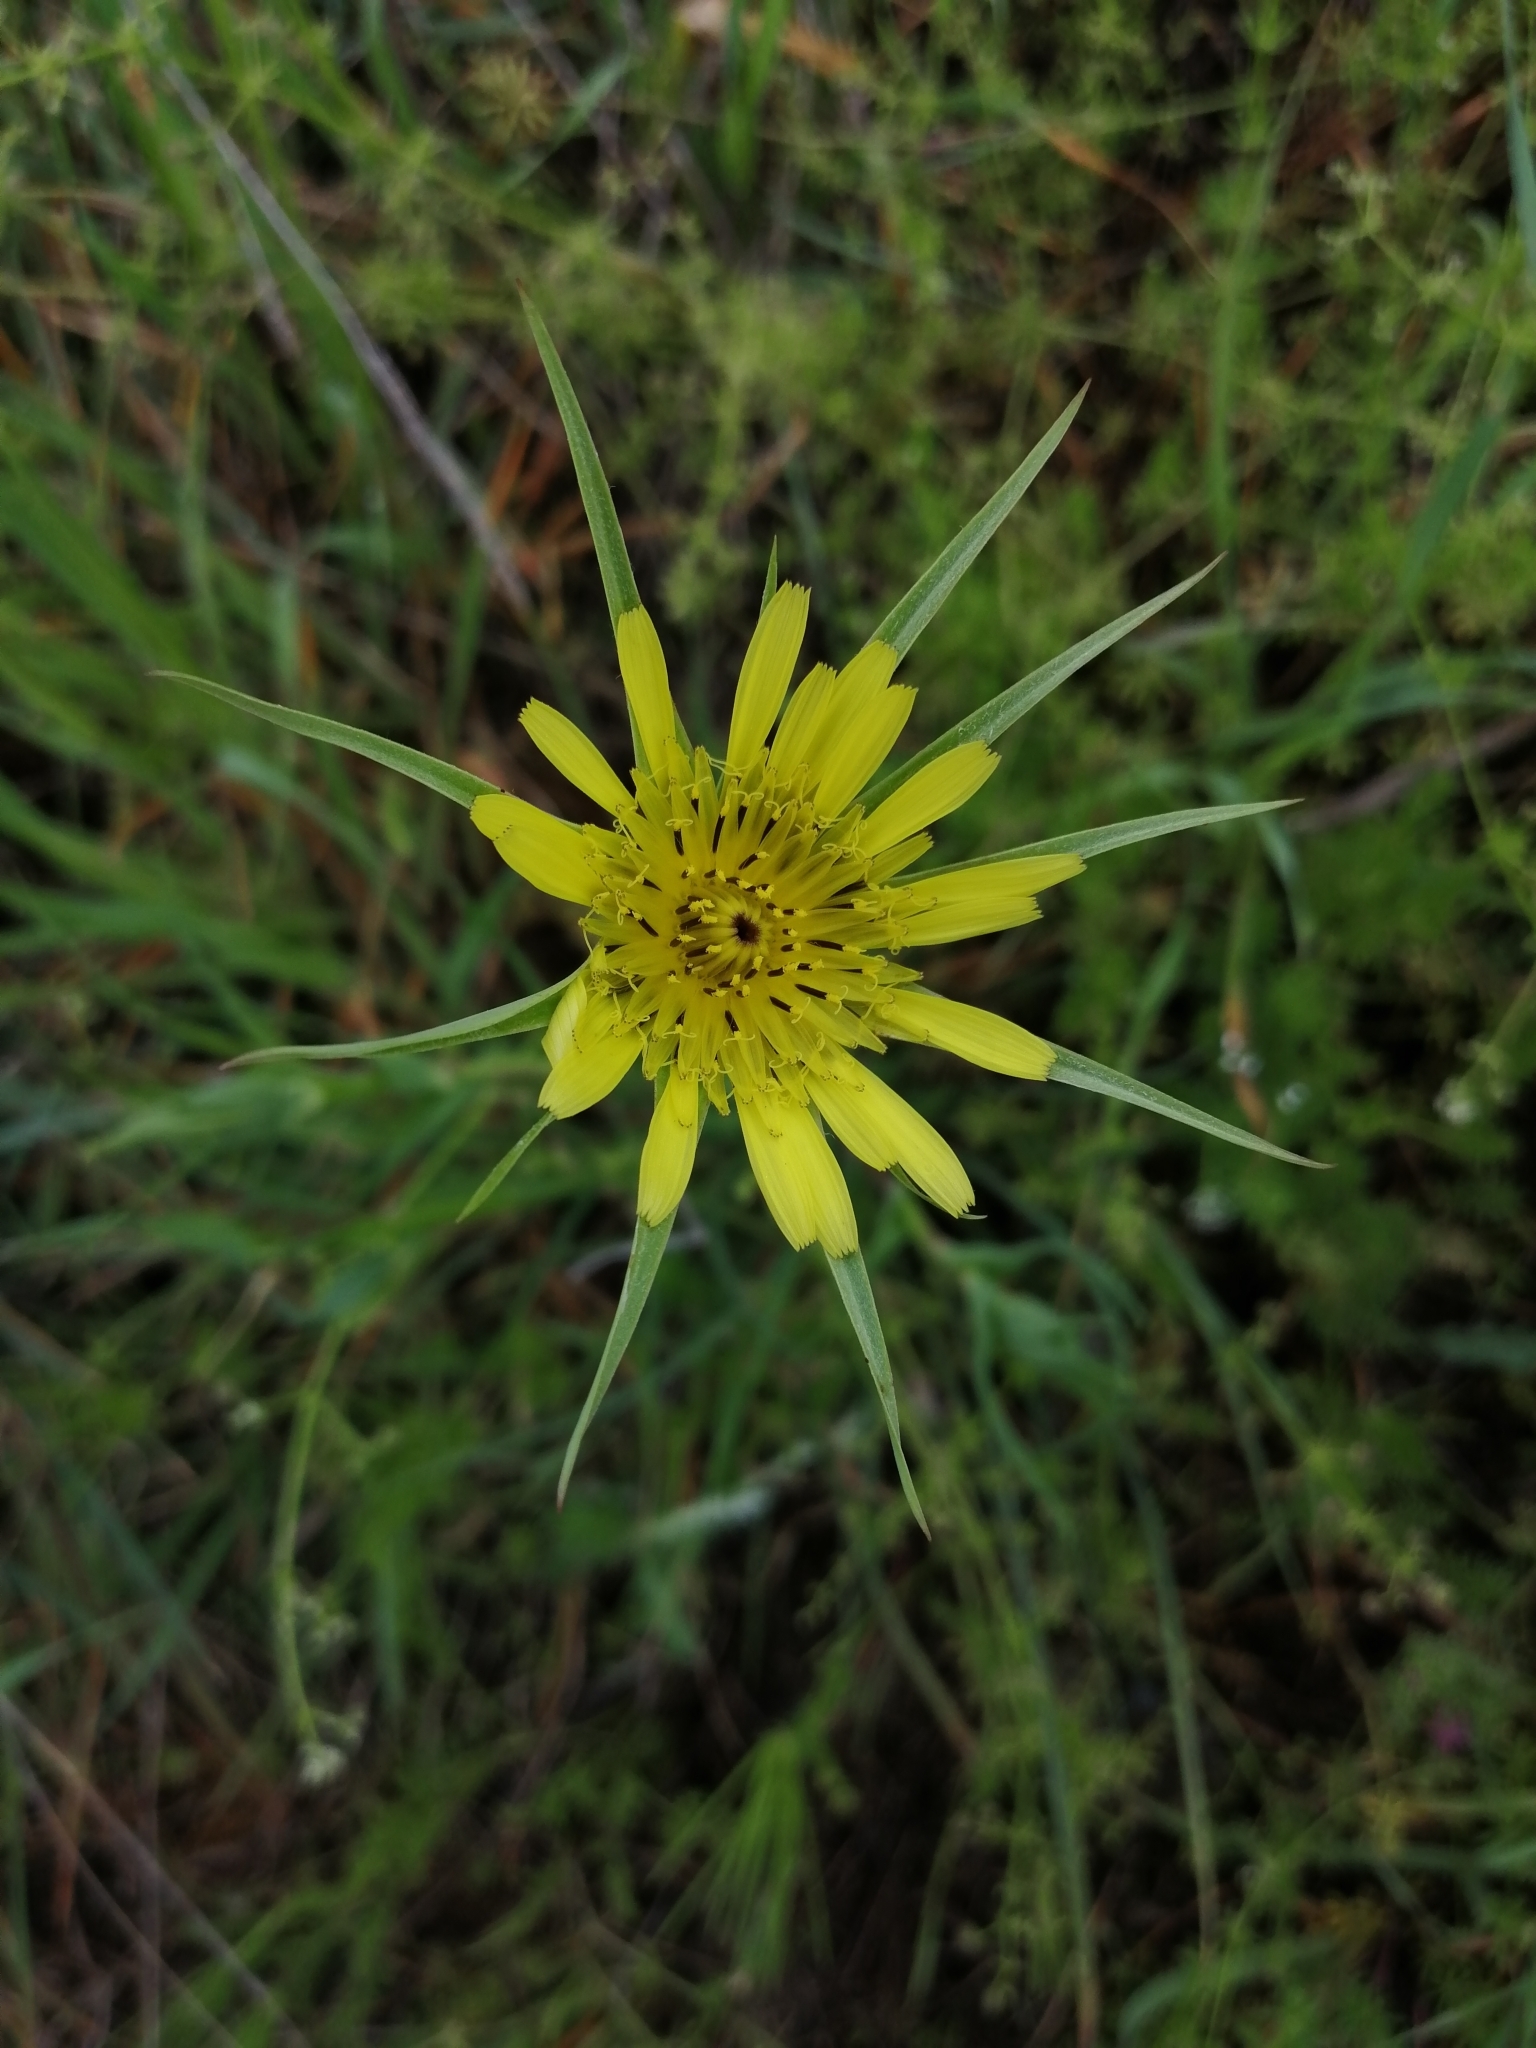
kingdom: Plantae
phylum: Tracheophyta
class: Magnoliopsida
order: Asterales
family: Asteraceae
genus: Tragopogon
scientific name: Tragopogon dubius
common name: Yellow salsify
